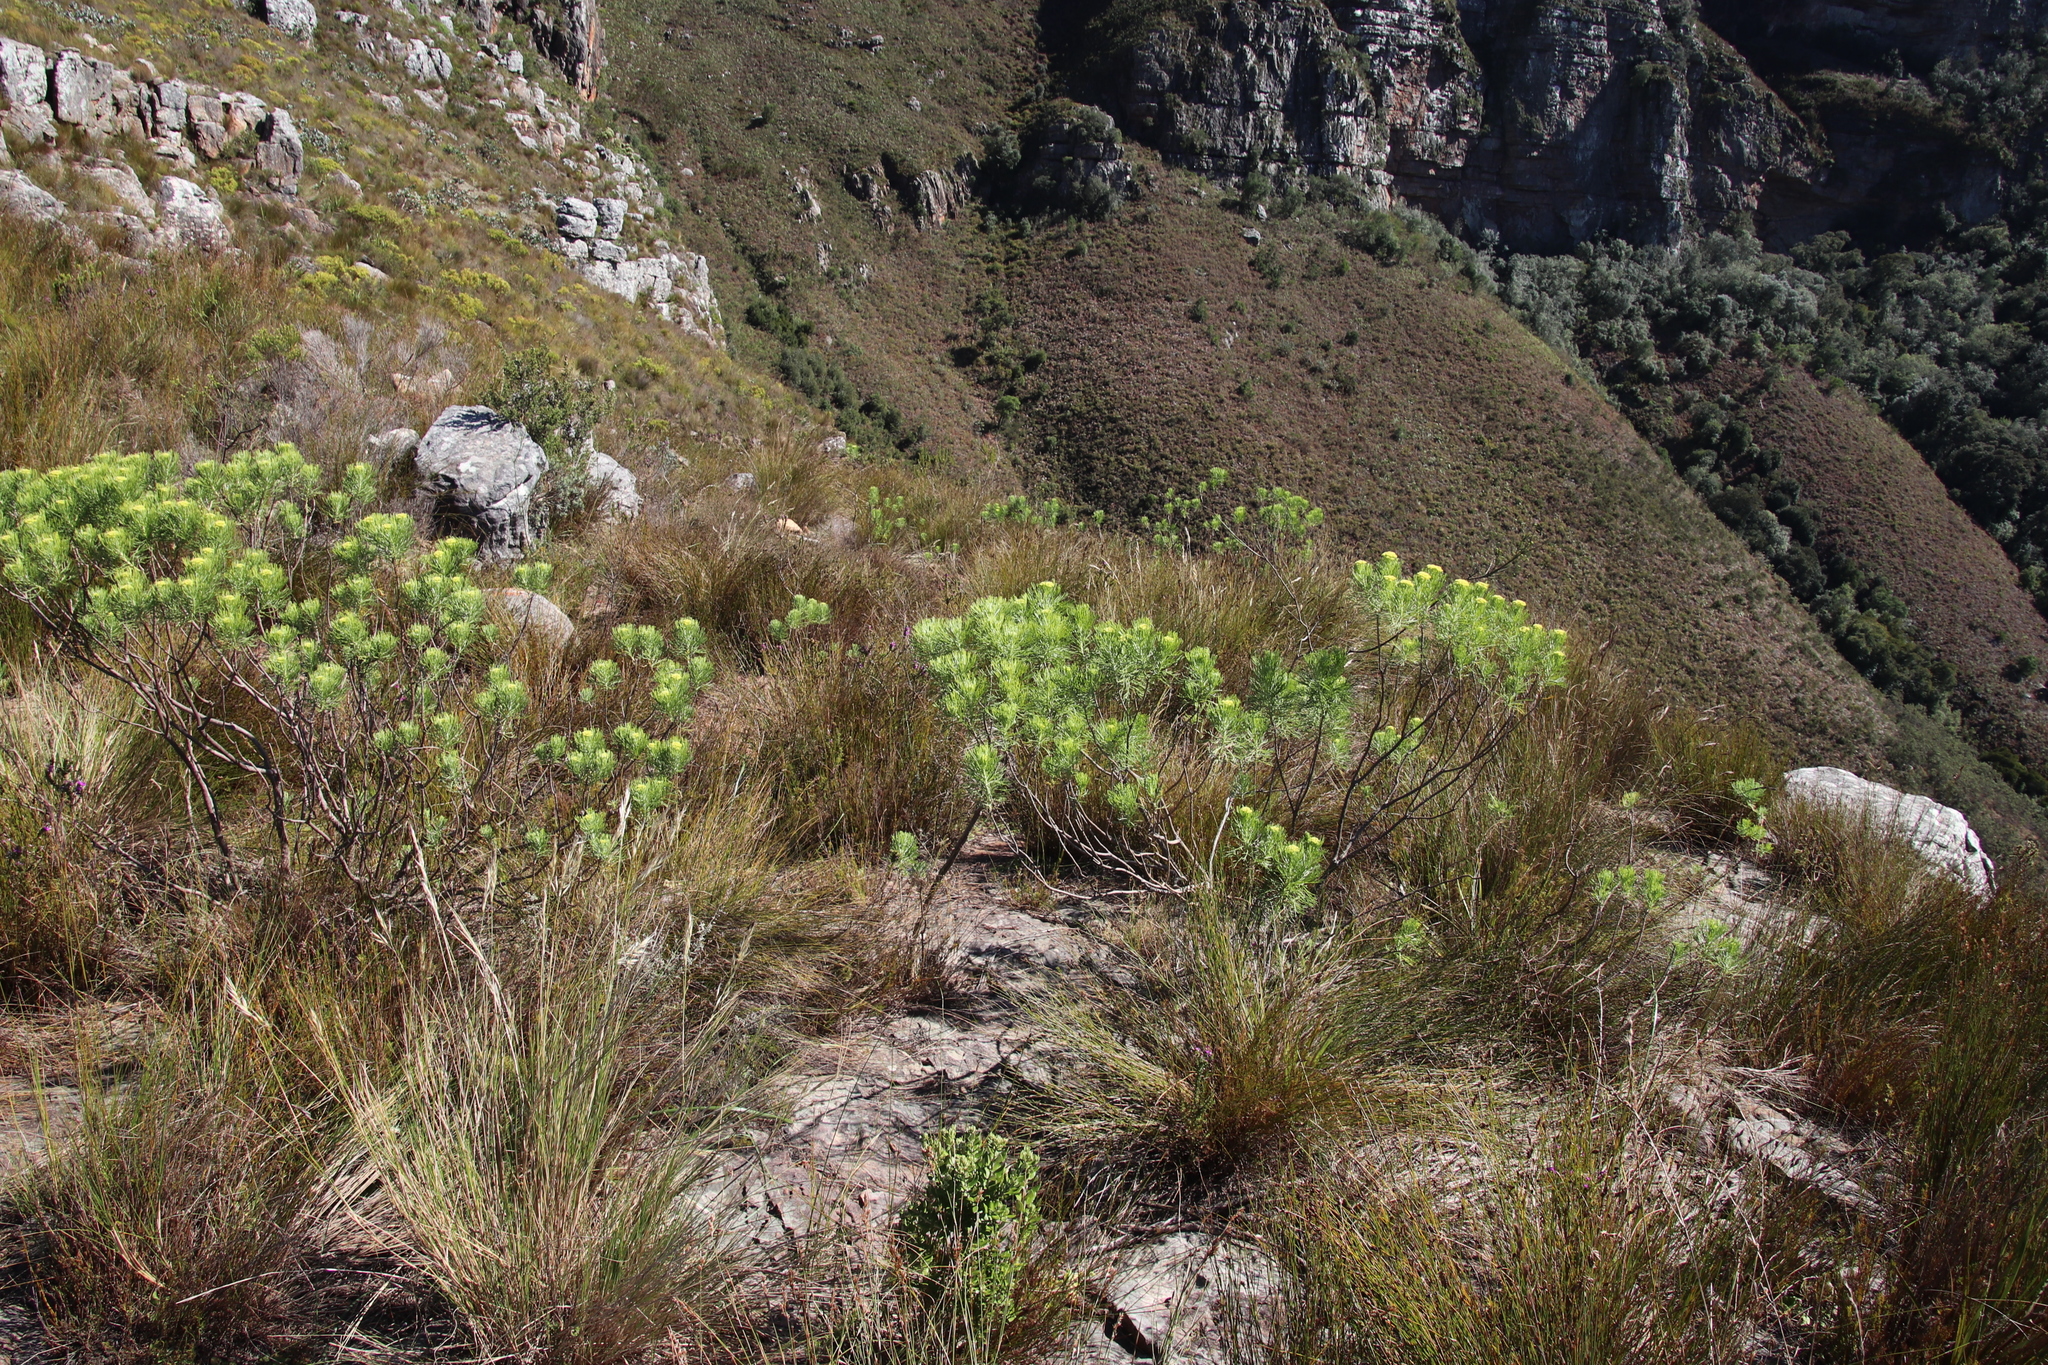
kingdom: Plantae
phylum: Tracheophyta
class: Magnoliopsida
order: Asterales
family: Asteraceae
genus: Athanasia
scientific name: Athanasia crithmifolia
